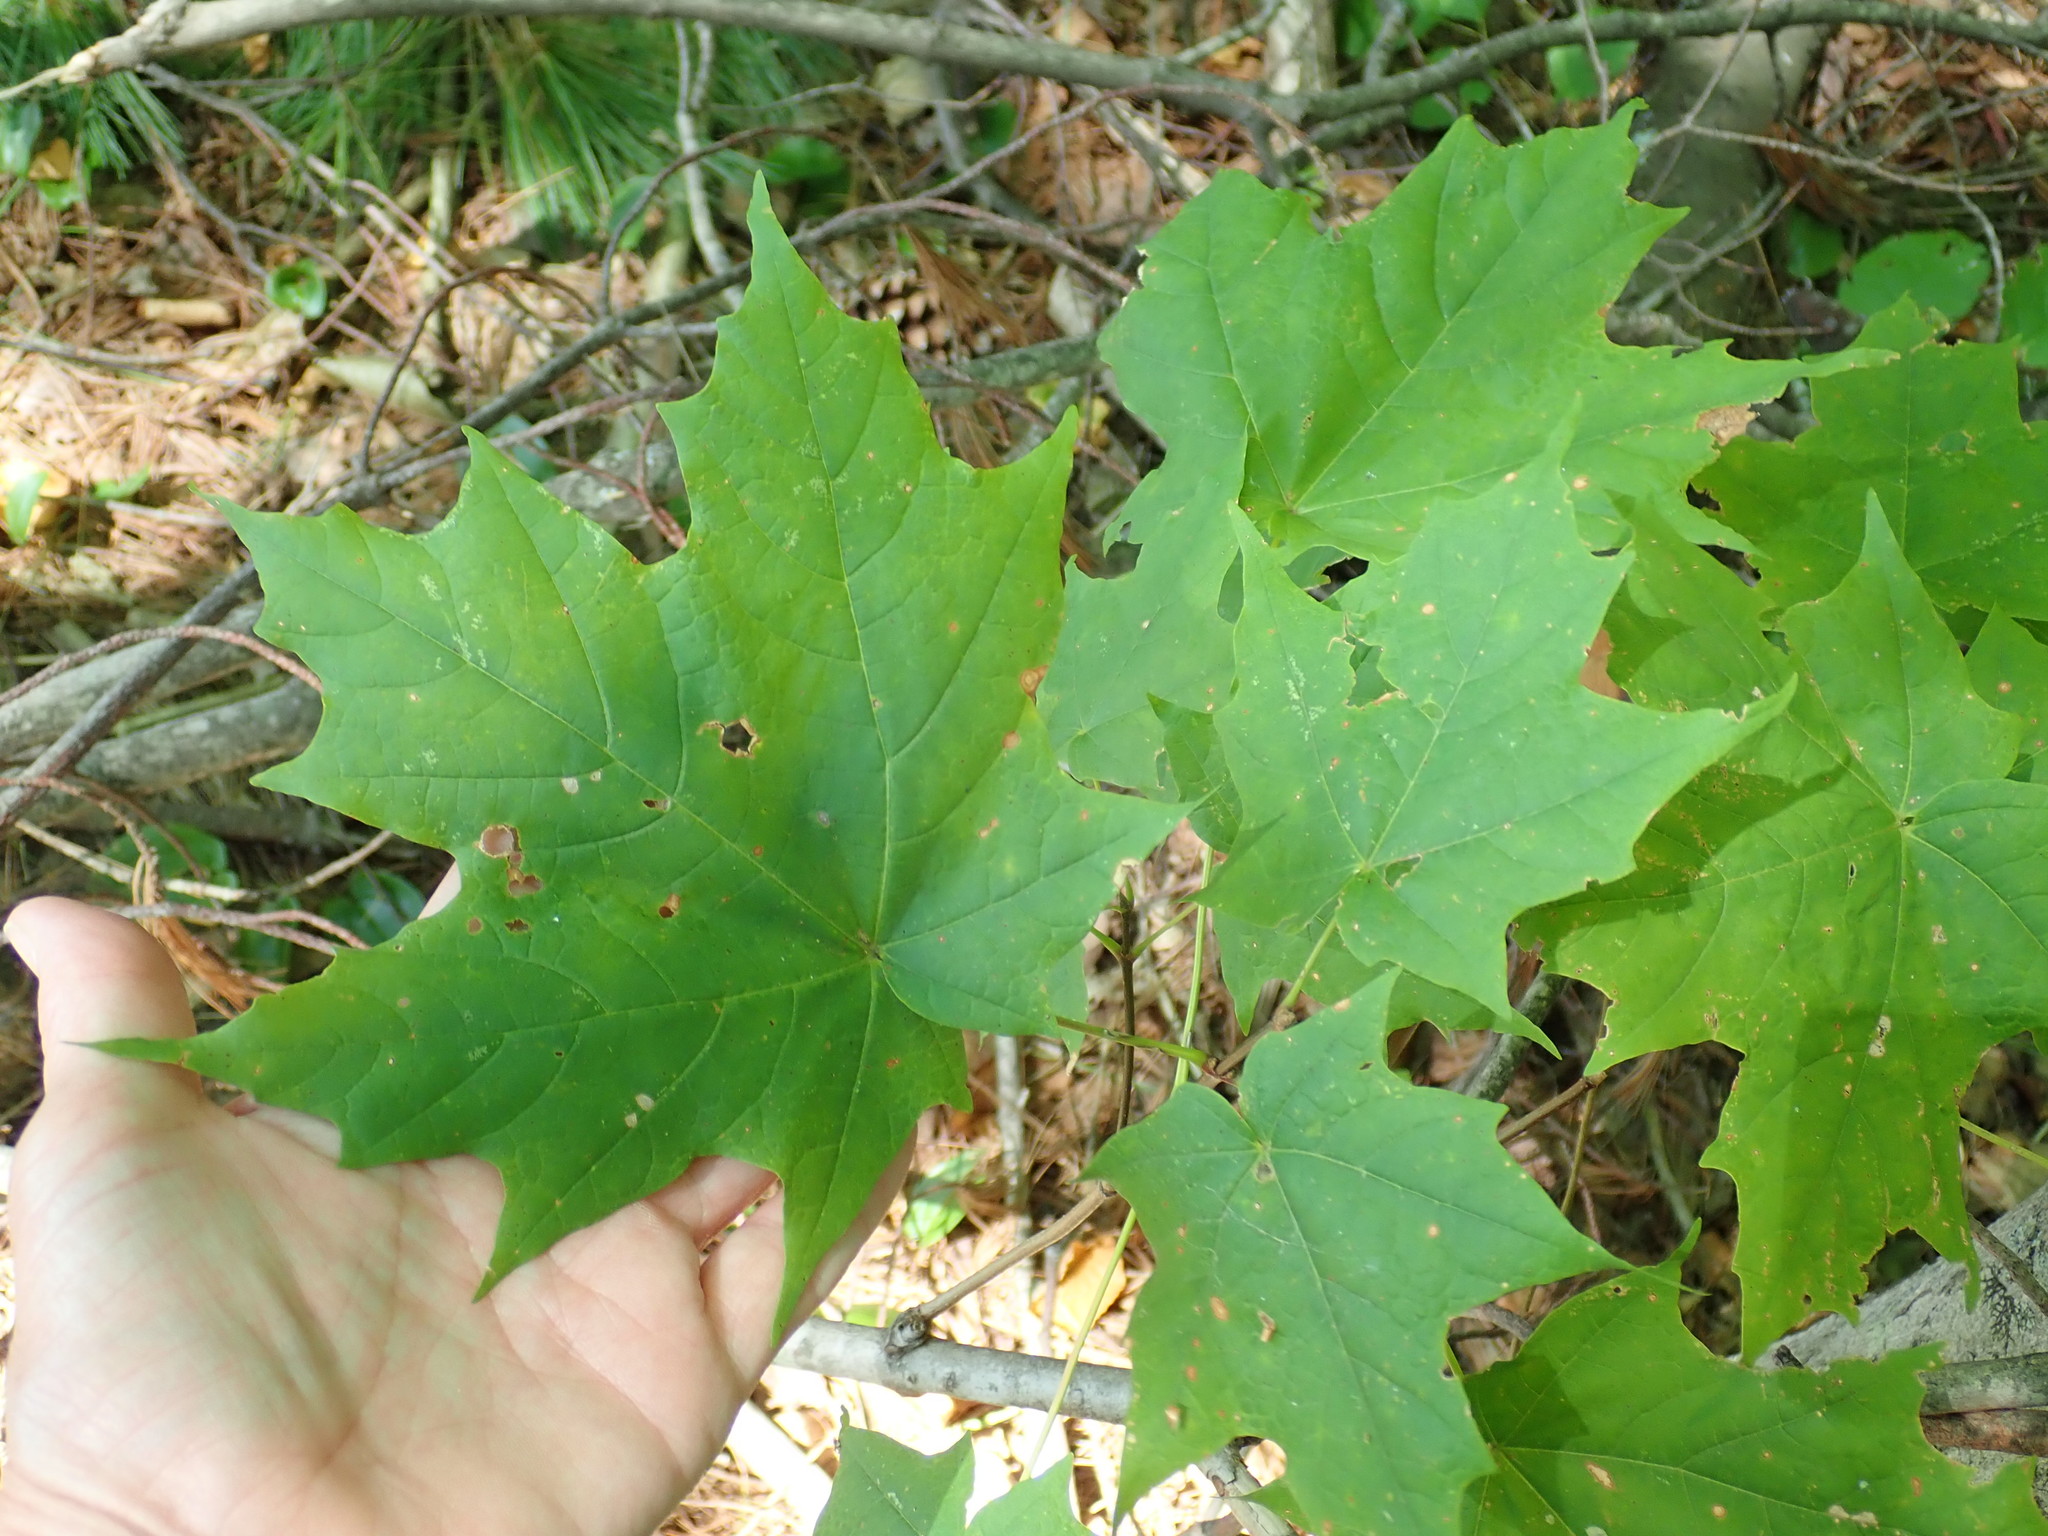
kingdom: Plantae
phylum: Tracheophyta
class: Magnoliopsida
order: Sapindales
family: Sapindaceae
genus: Acer
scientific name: Acer saccharum
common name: Sugar maple
